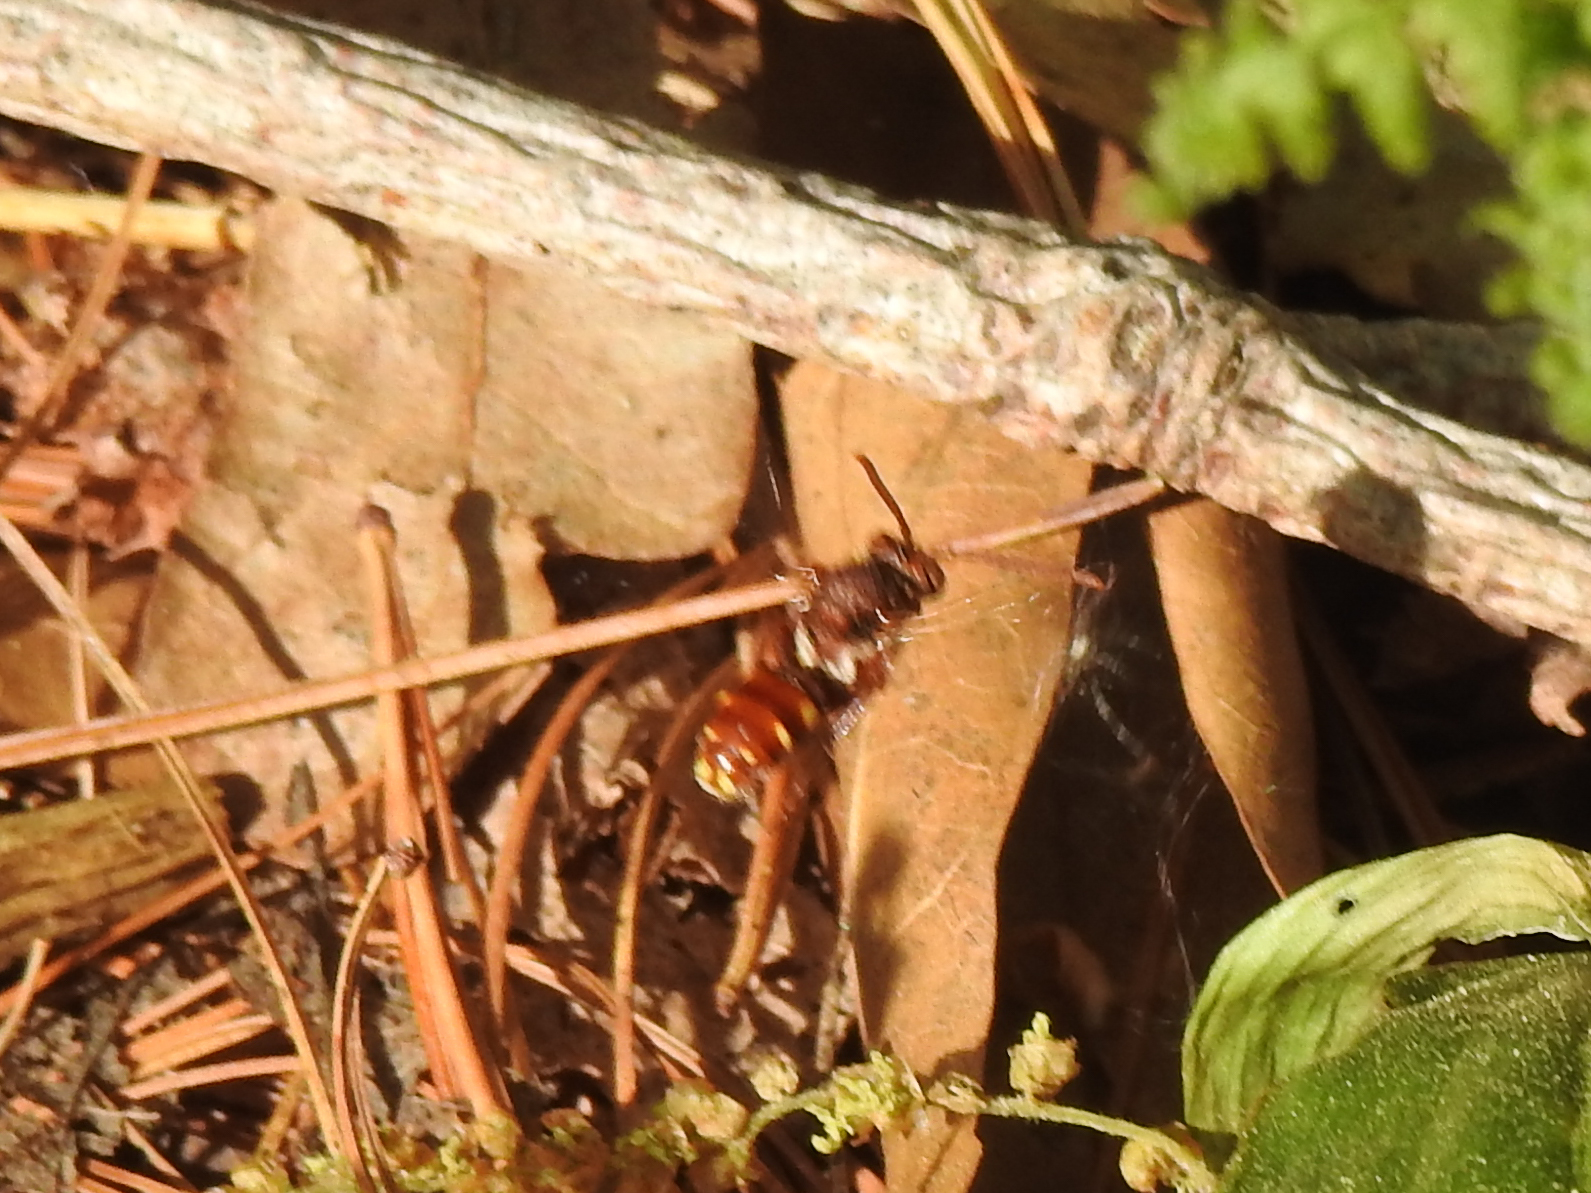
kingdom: Animalia
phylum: Arthropoda
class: Insecta
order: Hymenoptera
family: Apidae
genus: Nomada
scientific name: Nomada maculata
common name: Spotted nomad bee
